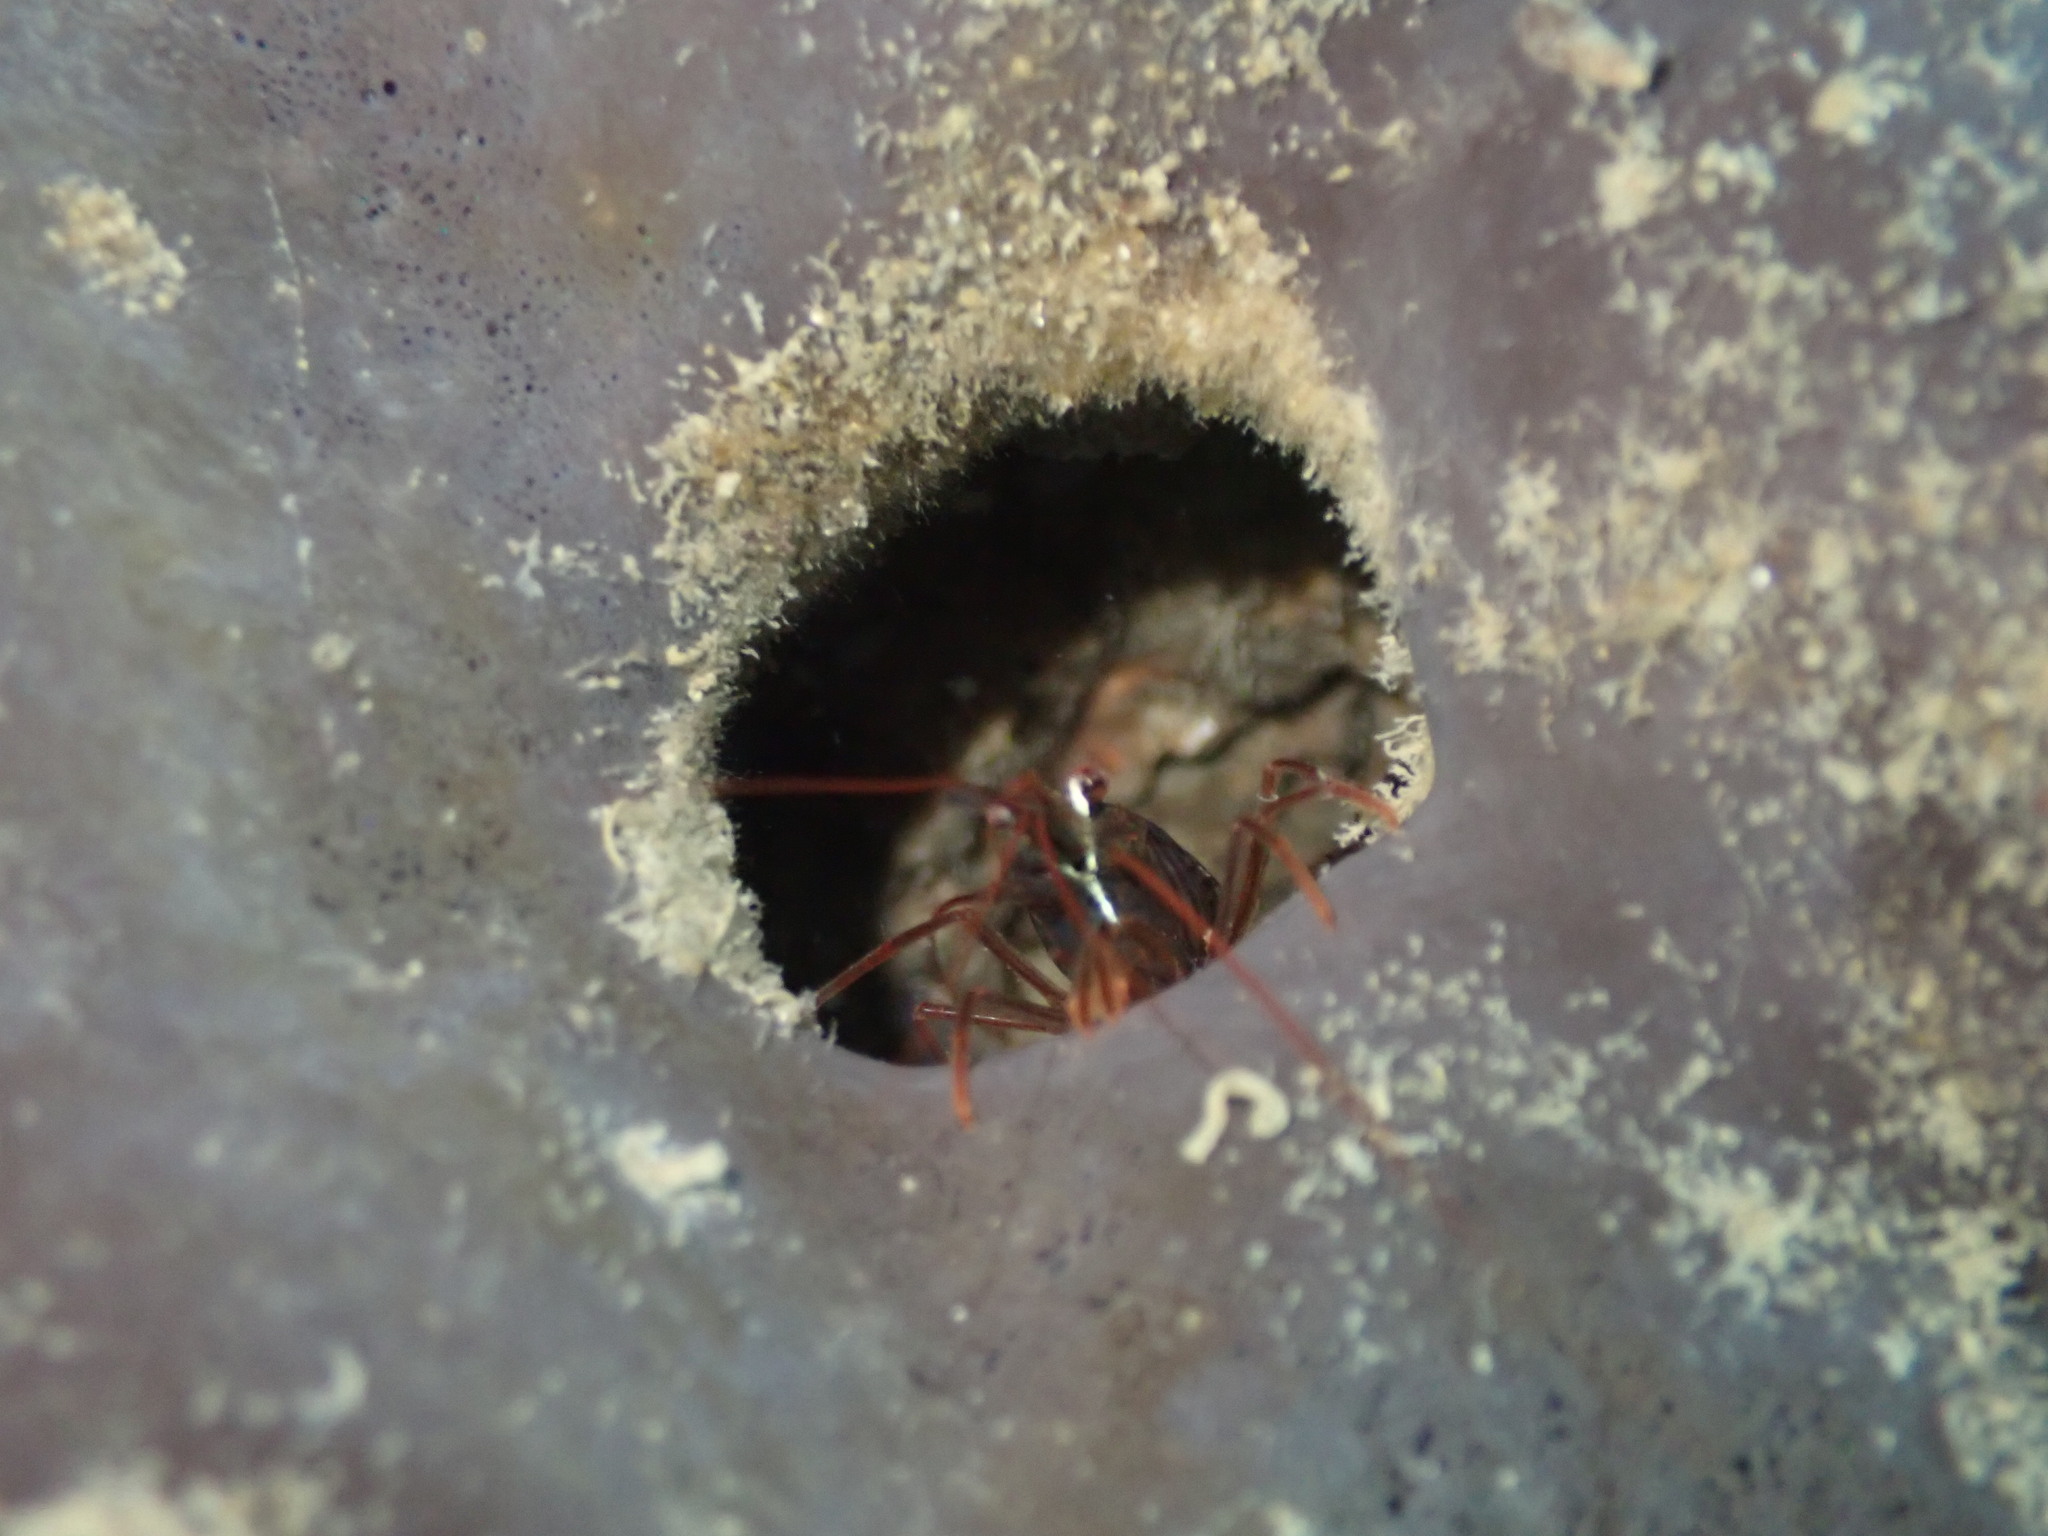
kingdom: Animalia
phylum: Arthropoda
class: Malacostraca
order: Decapoda
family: Lysmatidae
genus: Lysmata
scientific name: Lysmata californica
